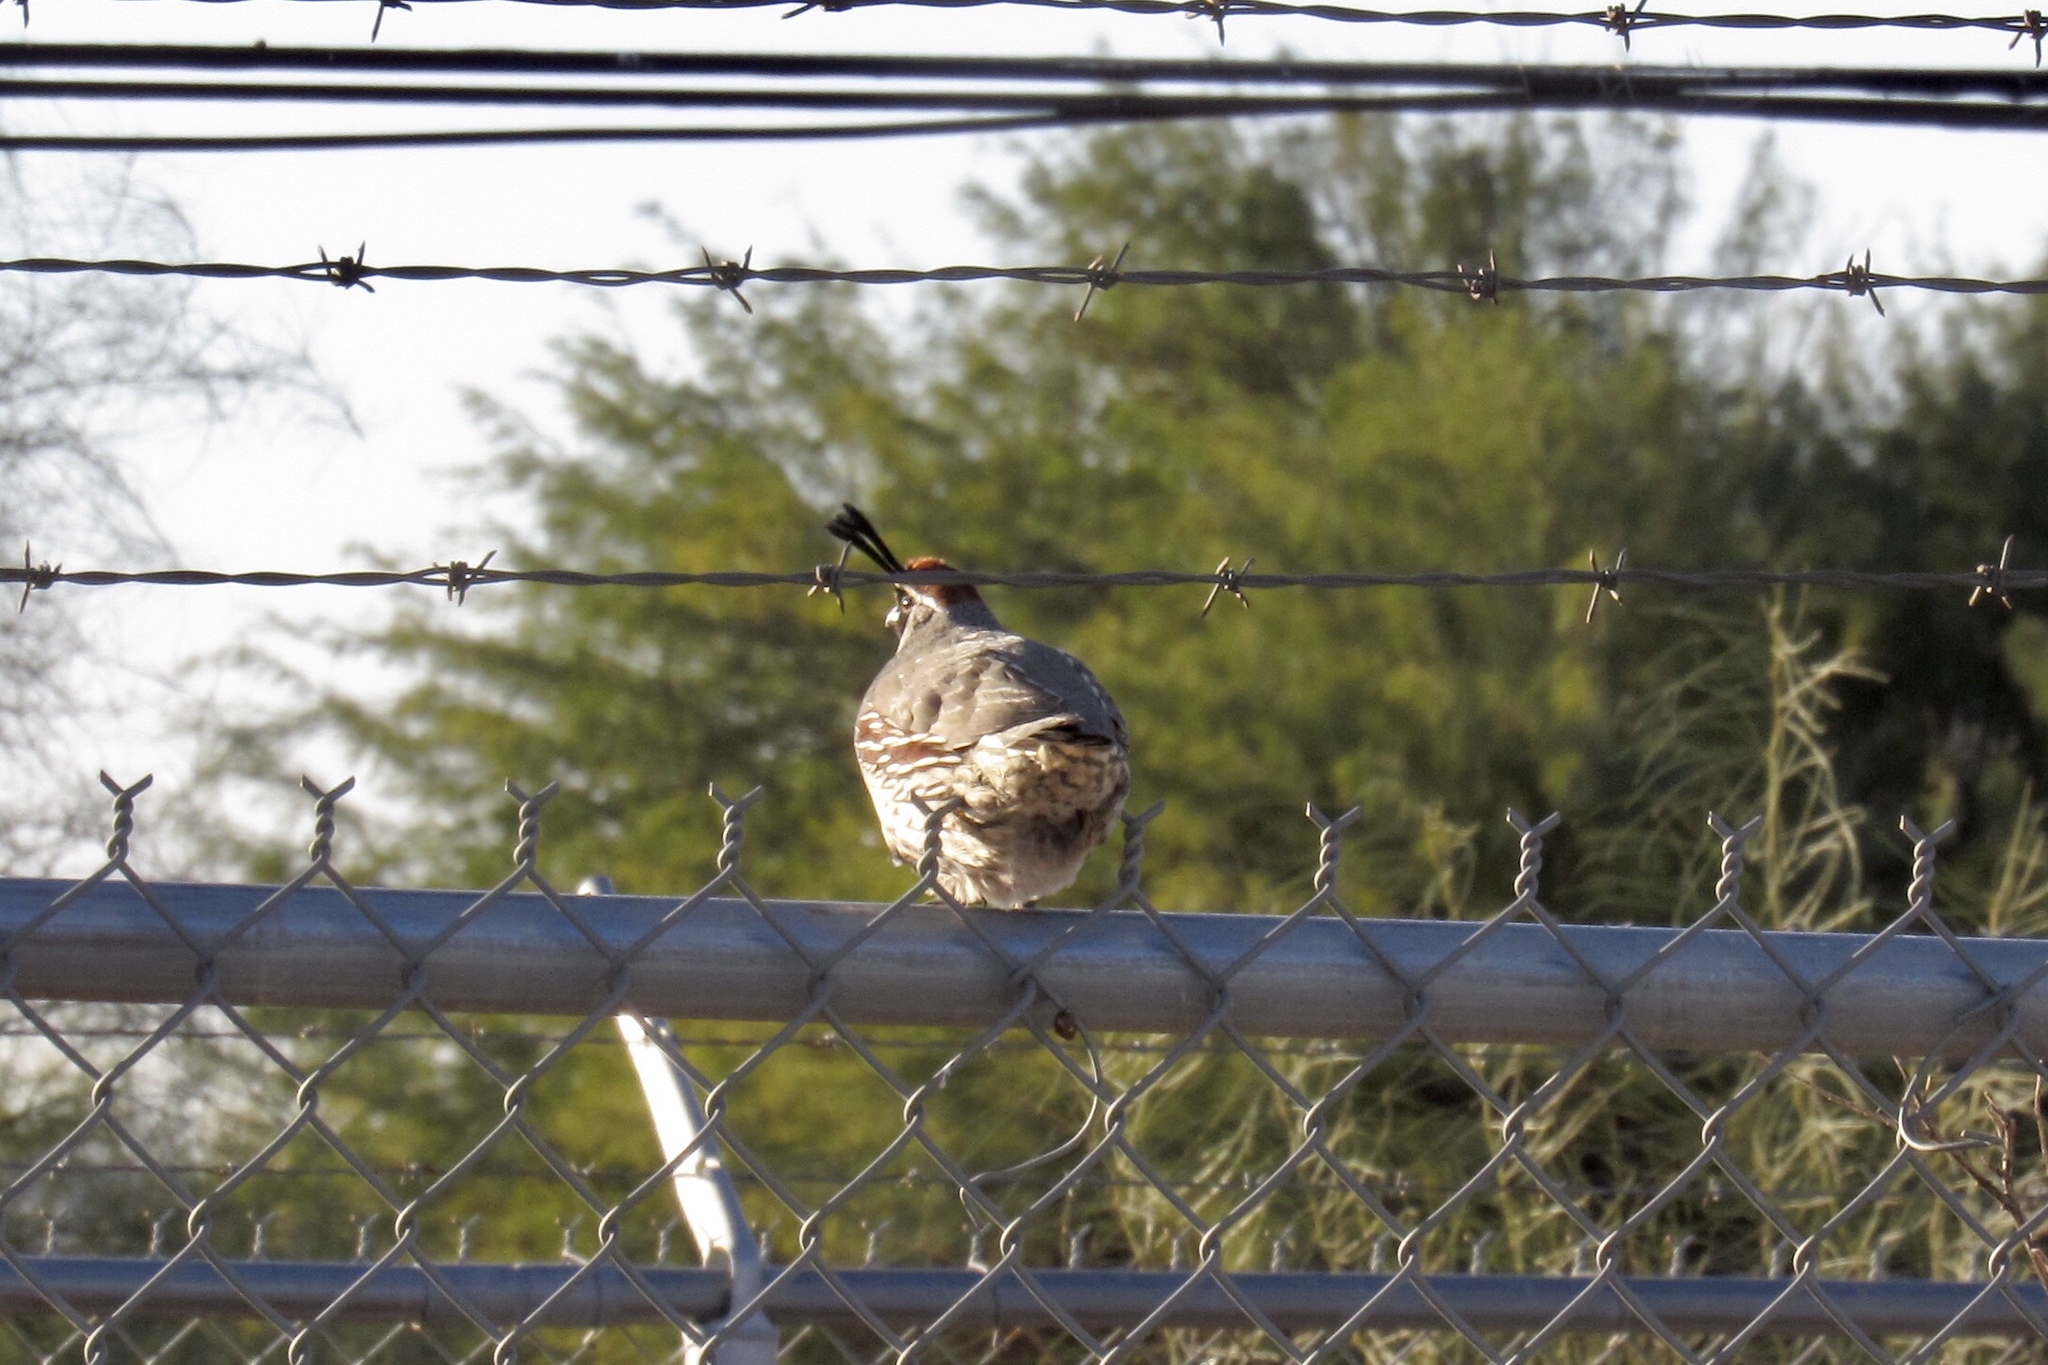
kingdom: Animalia
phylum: Chordata
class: Aves
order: Galliformes
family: Odontophoridae
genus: Callipepla
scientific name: Callipepla gambelii
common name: Gambel's quail
